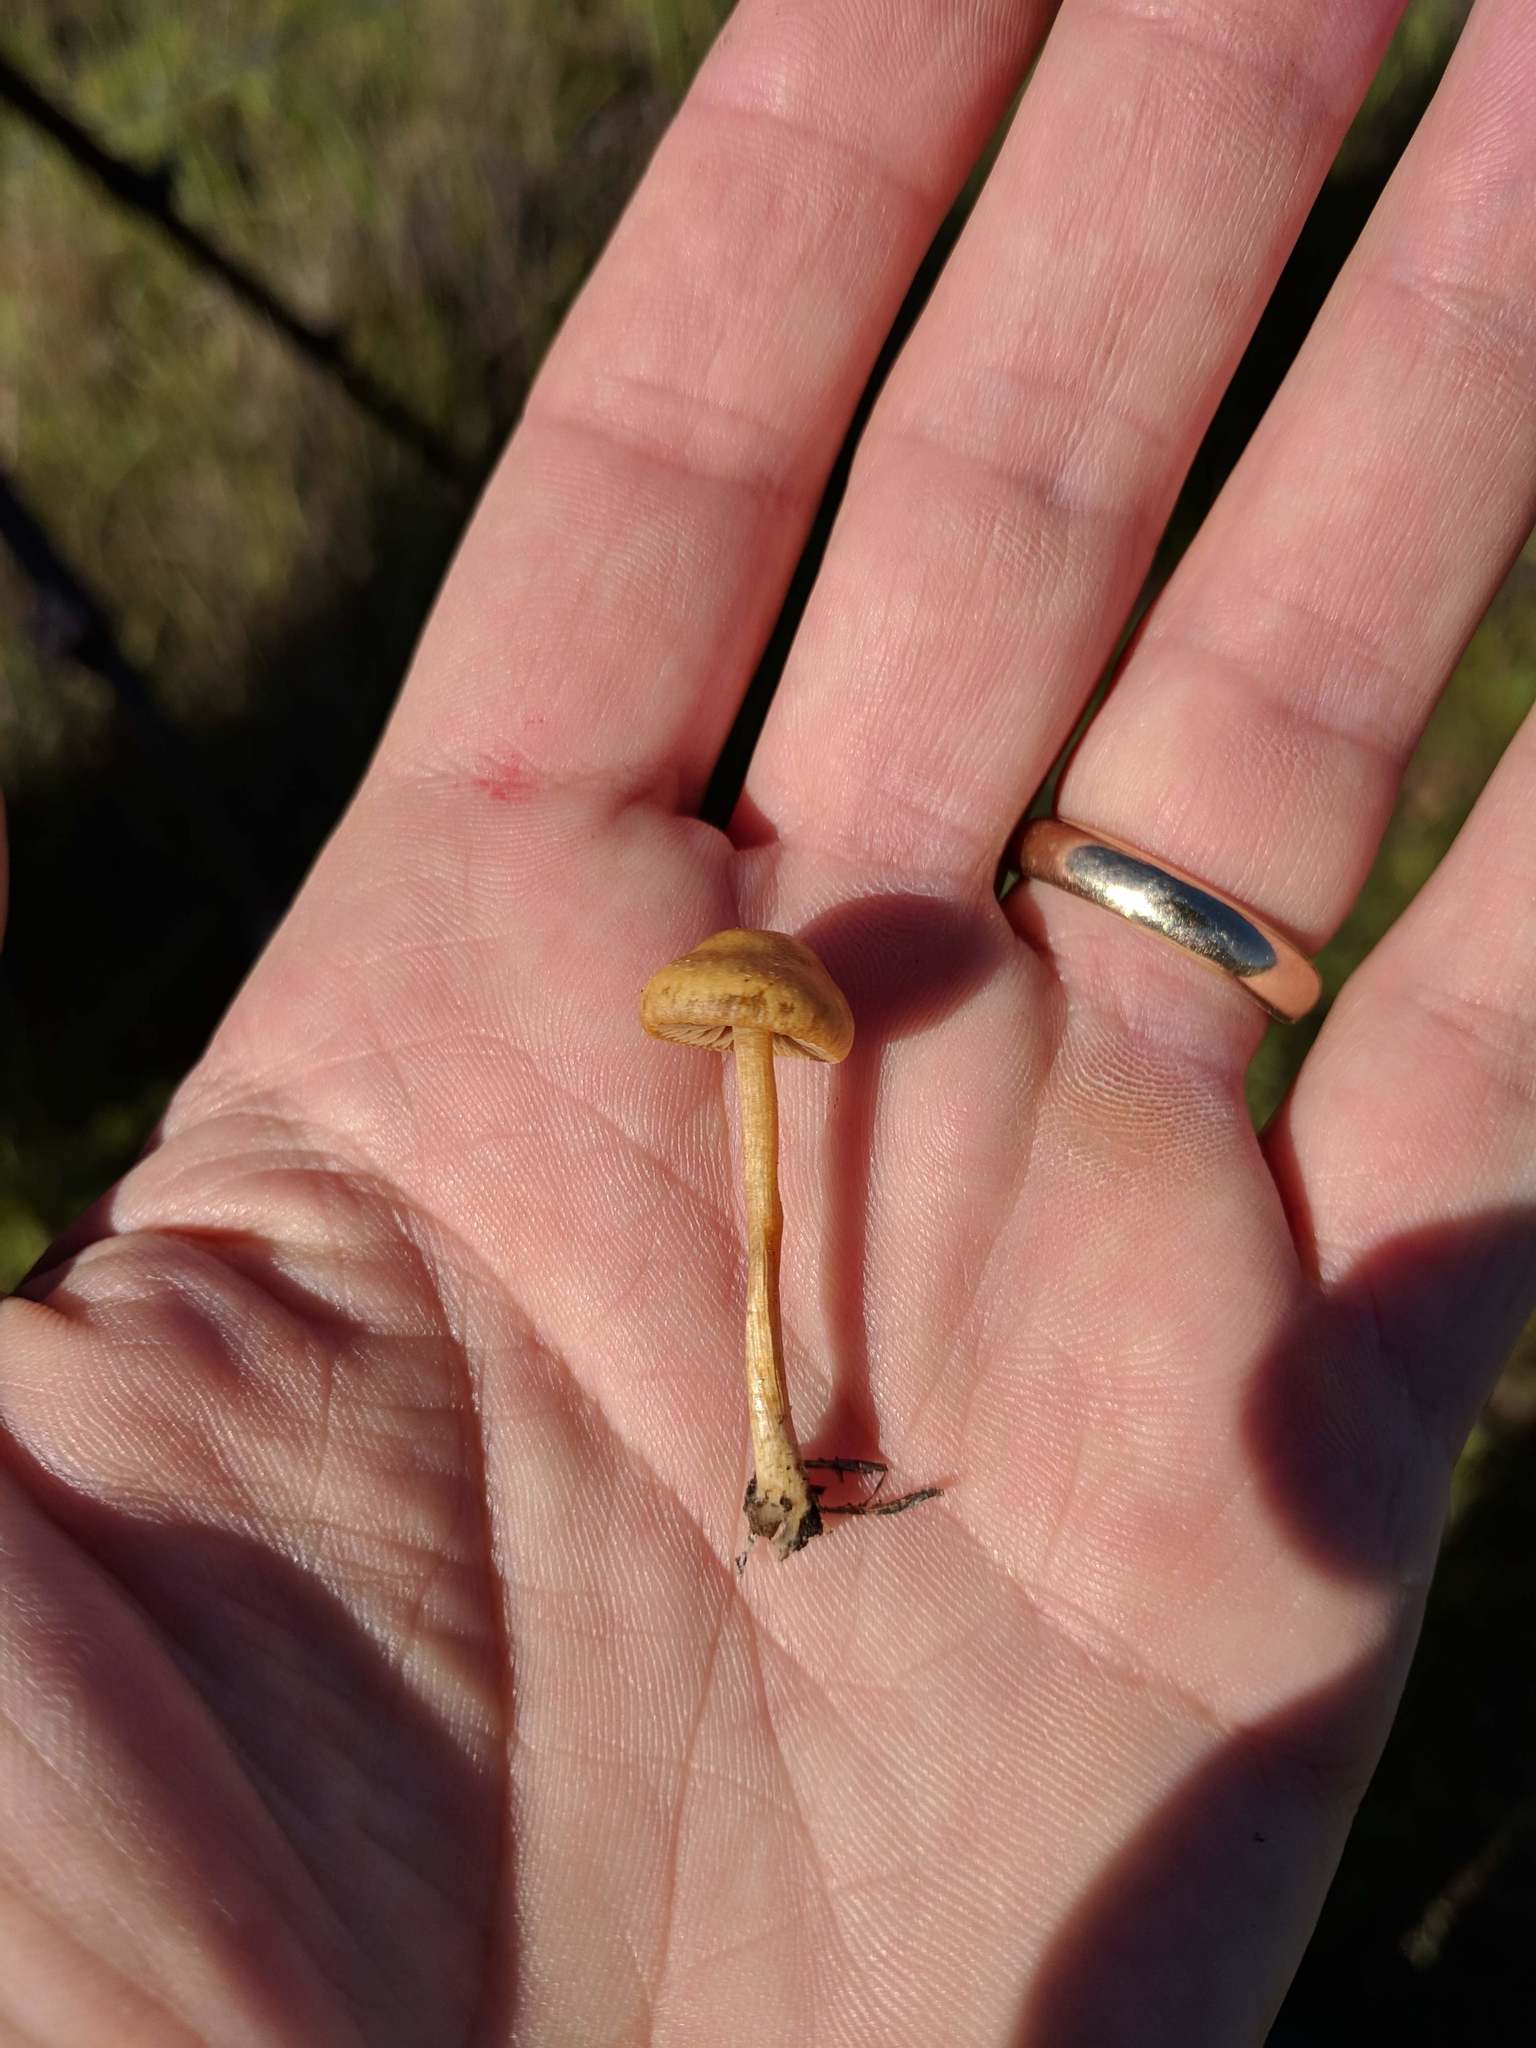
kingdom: Fungi
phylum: Basidiomycota
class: Agaricomycetes
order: Agaricales
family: Strophariaceae
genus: Agrocybe
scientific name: Agrocybe pediades
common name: Common fieldcap
